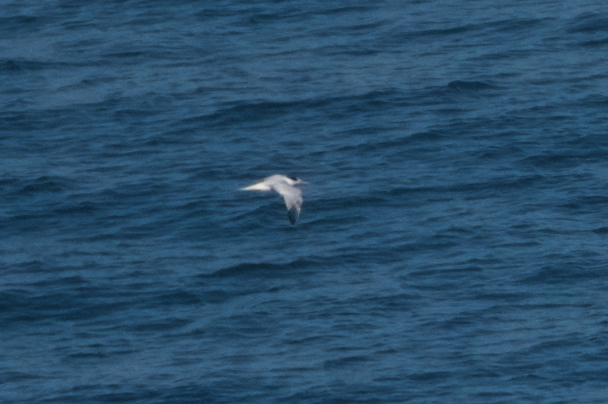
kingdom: Animalia
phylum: Chordata
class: Aves
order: Charadriiformes
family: Laridae
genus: Thalasseus
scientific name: Thalasseus elegans
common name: Elegant tern
